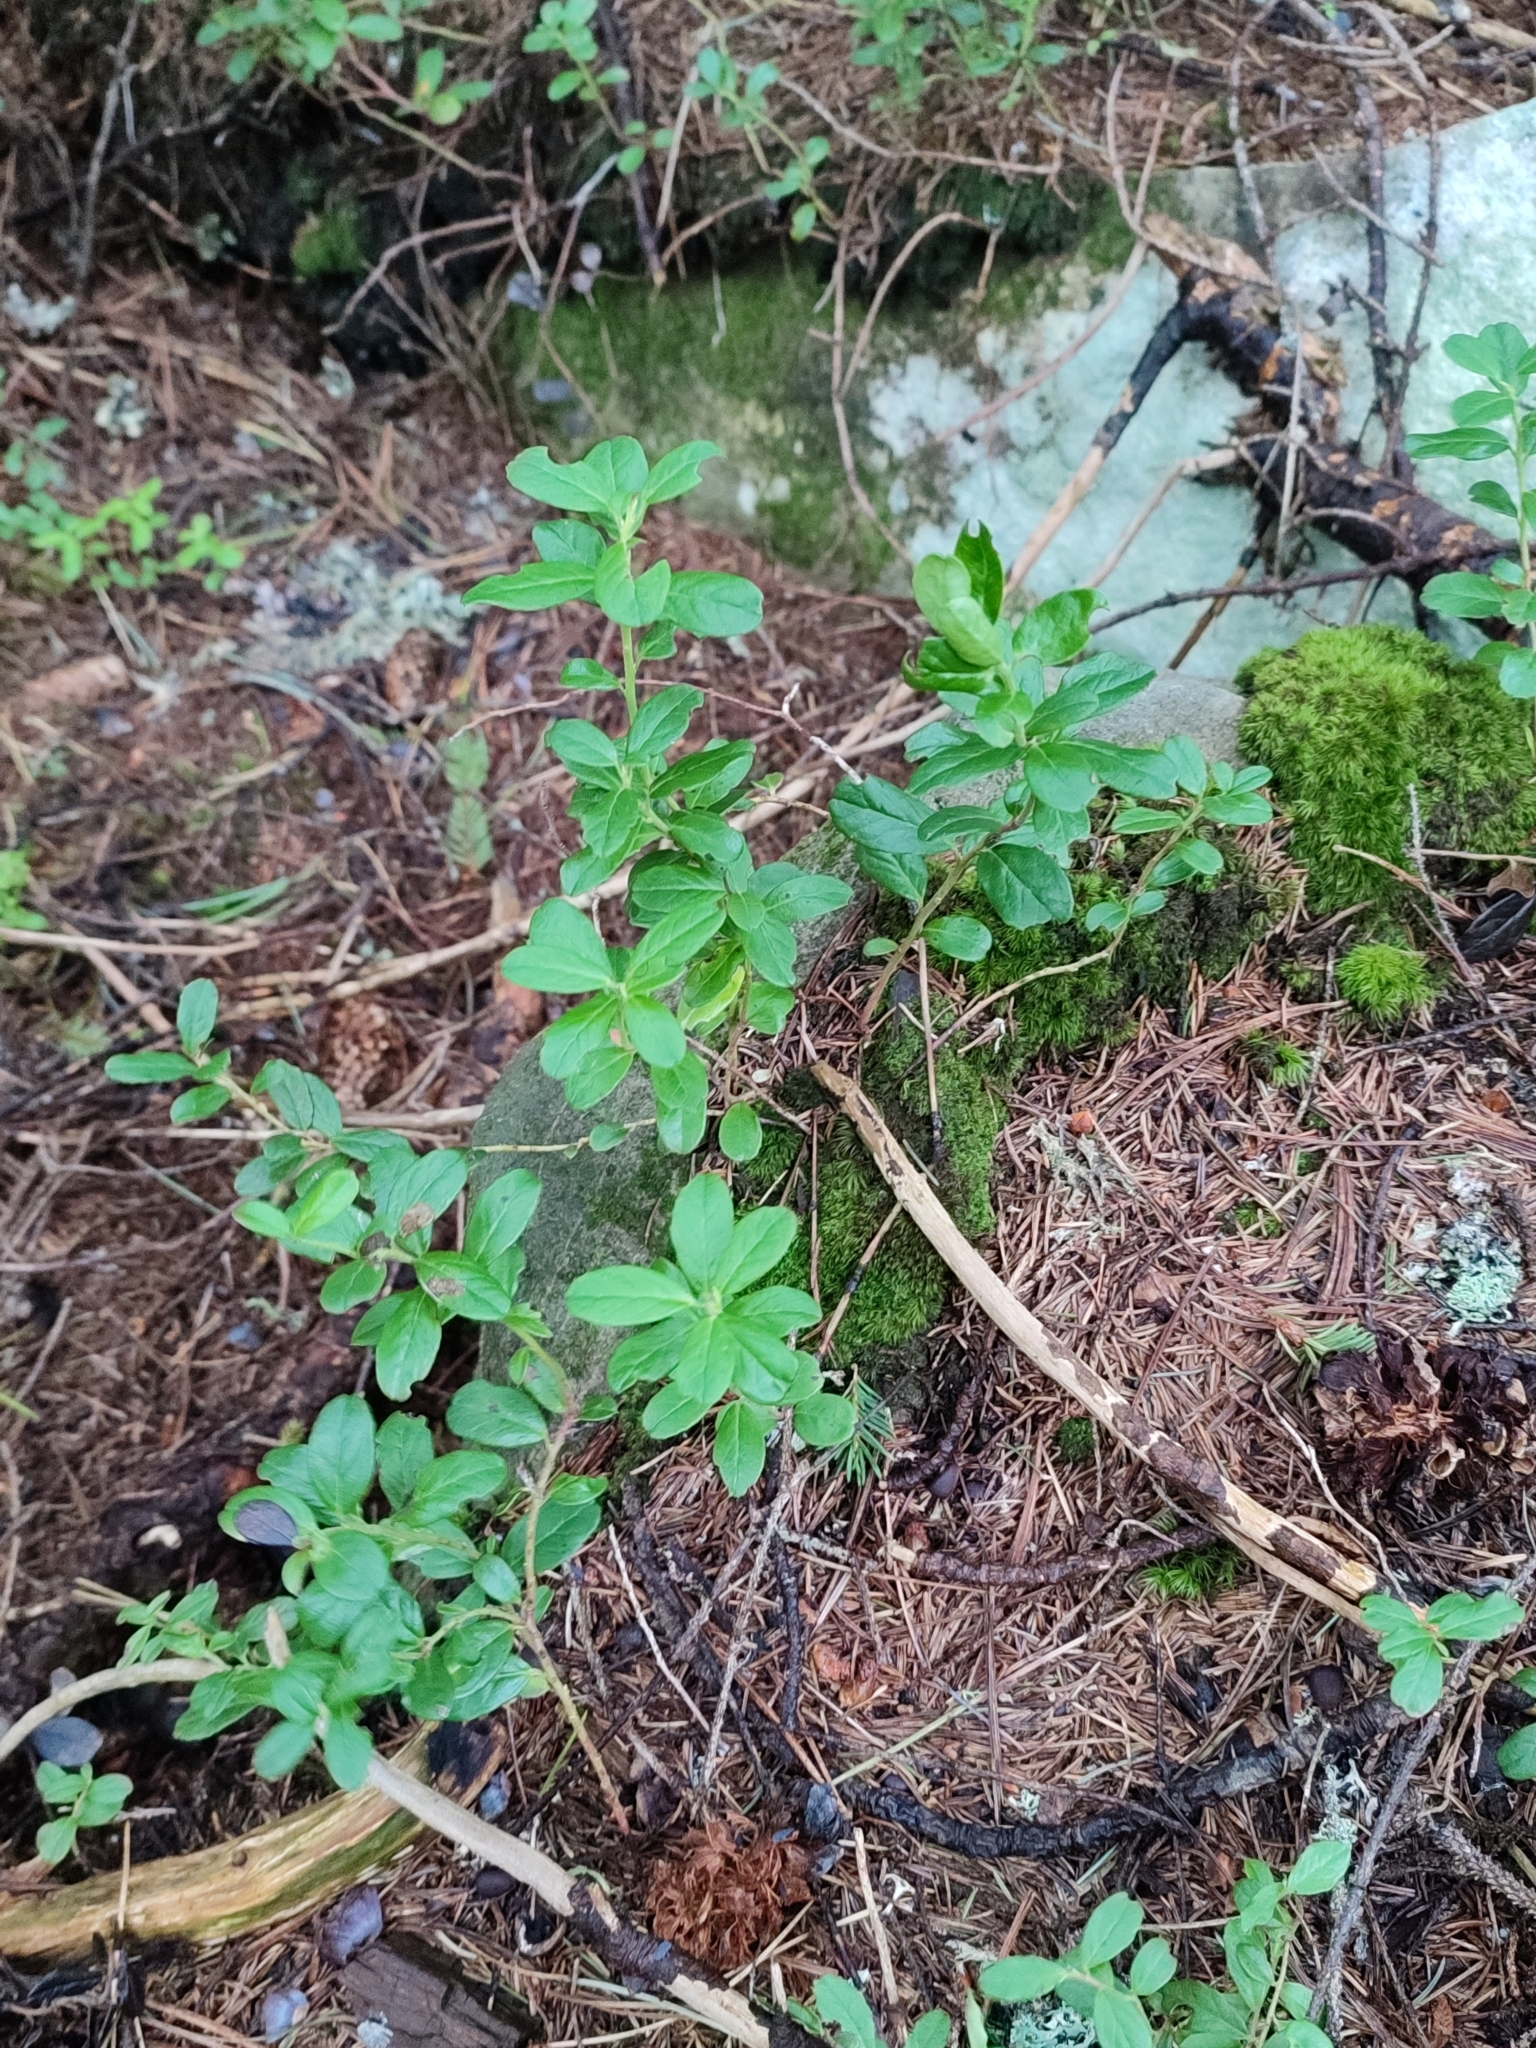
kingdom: Plantae
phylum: Tracheophyta
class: Magnoliopsida
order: Ericales
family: Ericaceae
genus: Vaccinium
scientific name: Vaccinium vitis-idaea
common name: Cowberry
